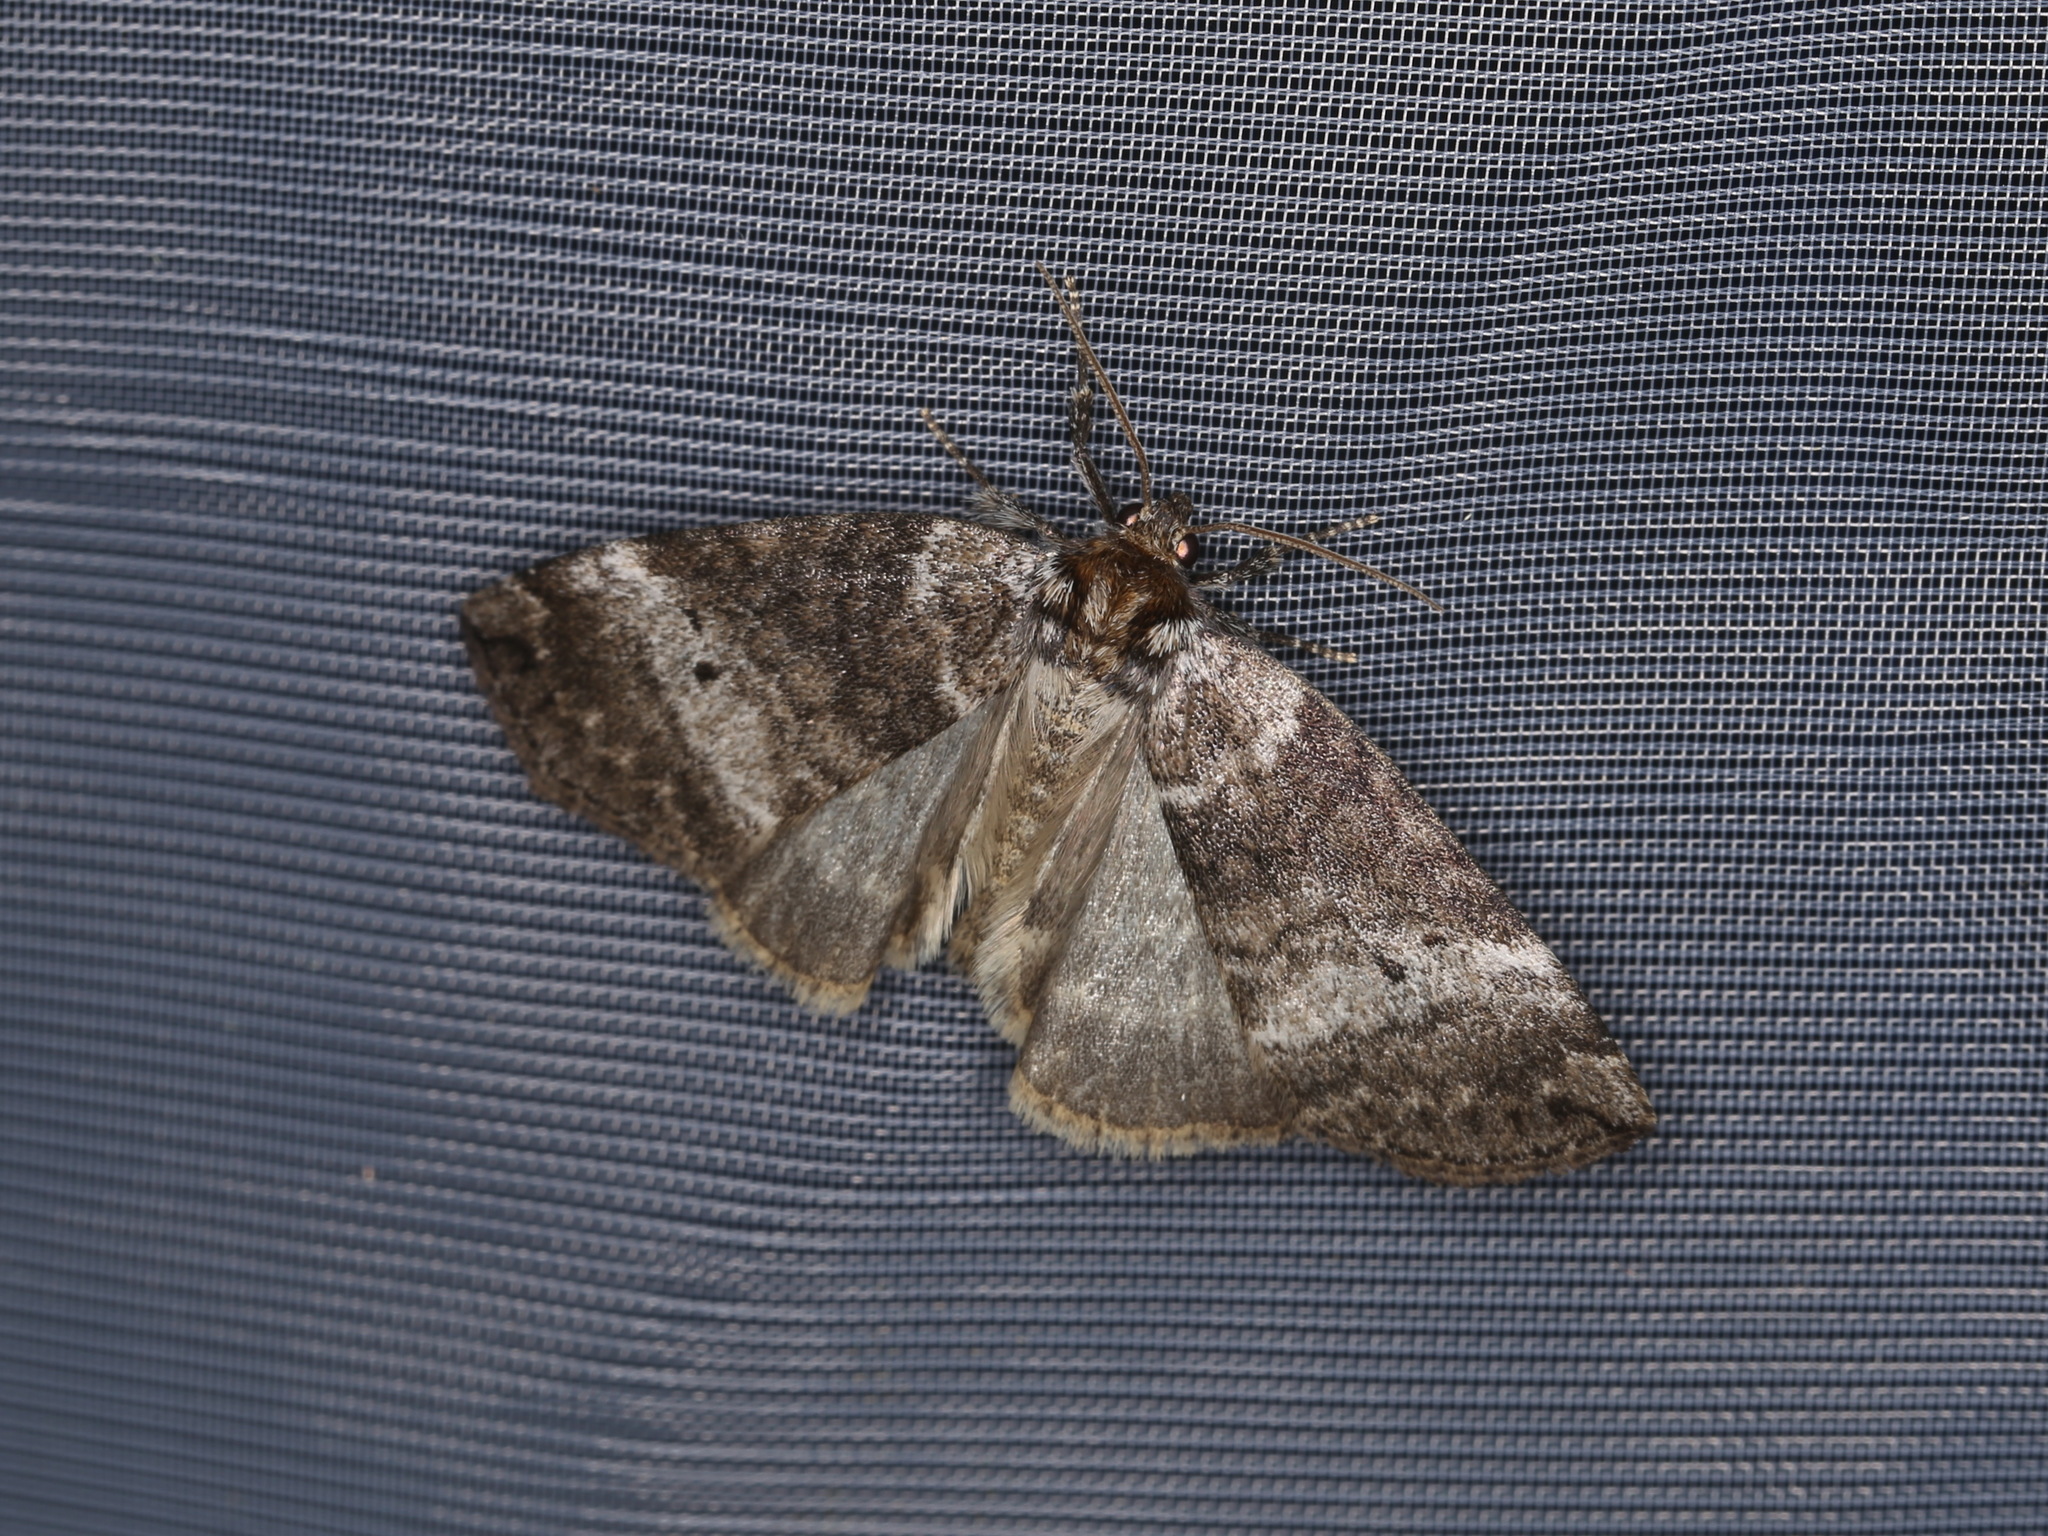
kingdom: Animalia
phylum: Arthropoda
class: Insecta
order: Lepidoptera
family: Drepanidae
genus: Ochropacha
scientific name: Ochropacha duplaris
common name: Common lutestring
